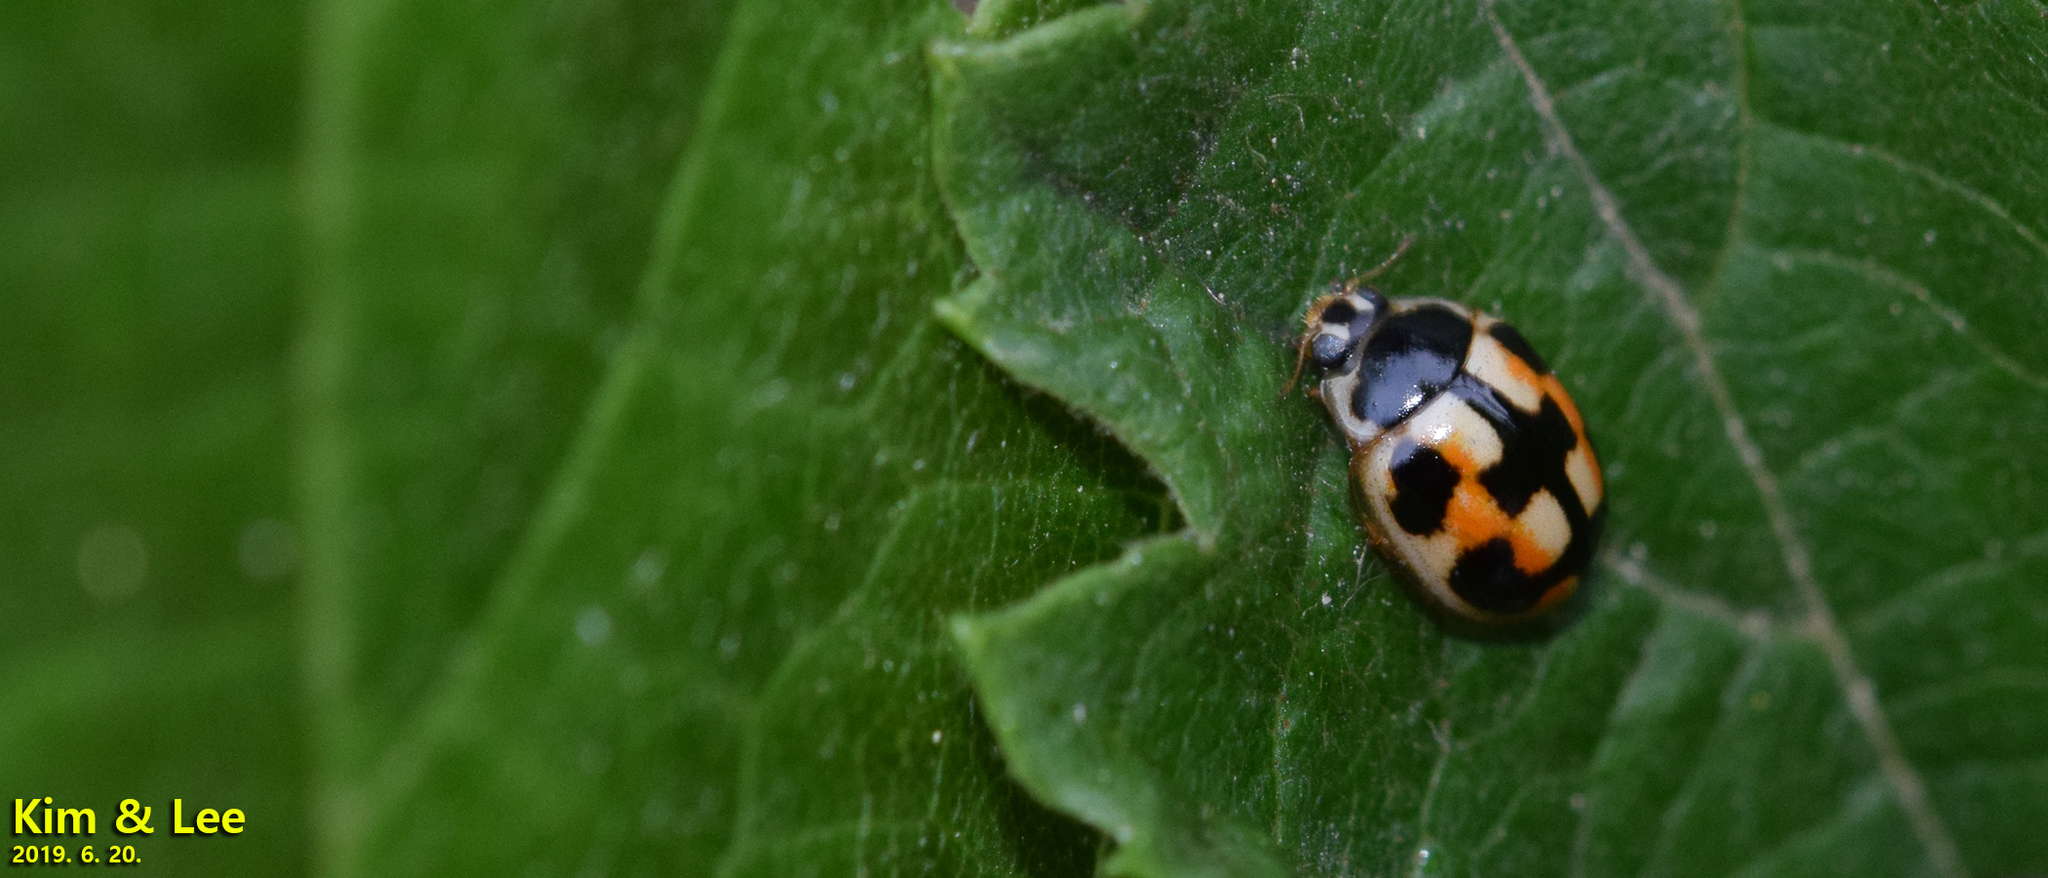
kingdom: Animalia
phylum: Arthropoda
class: Insecta
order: Coleoptera
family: Coccinellidae
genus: Propylea
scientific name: Propylea japonica
